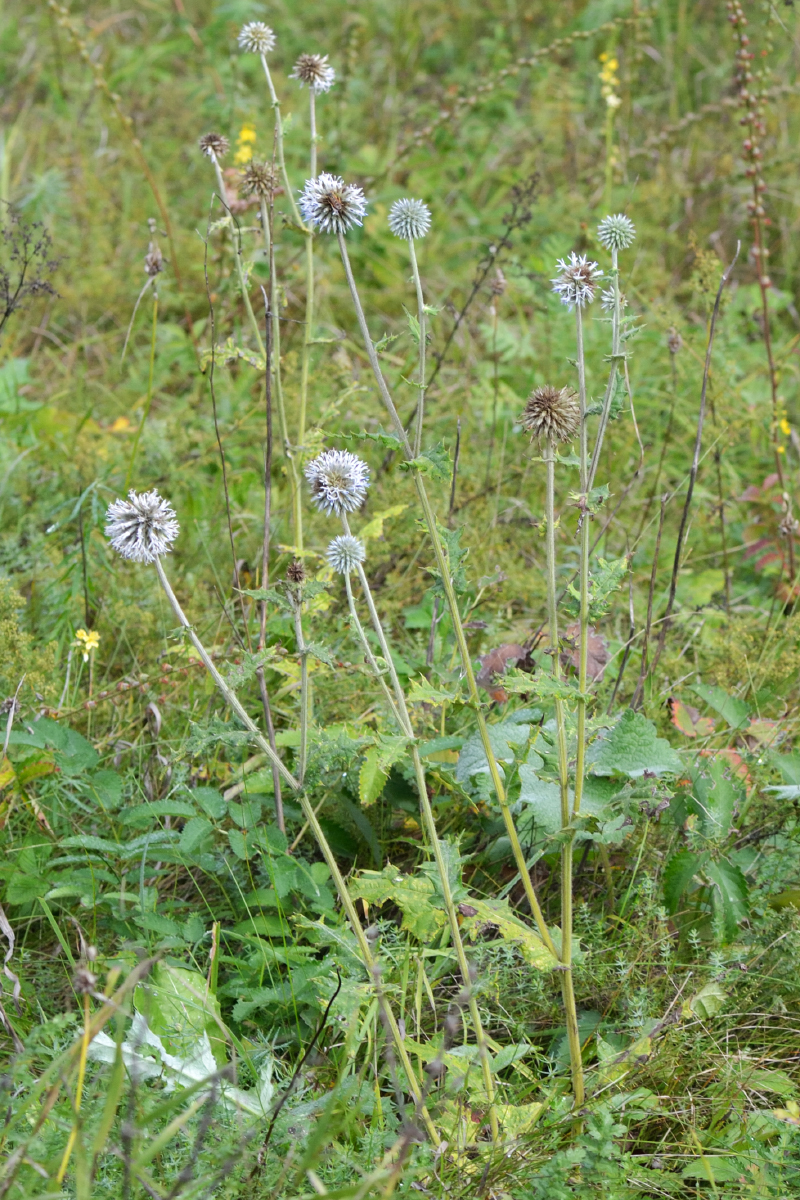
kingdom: Plantae
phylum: Tracheophyta
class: Magnoliopsida
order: Asterales
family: Asteraceae
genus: Echinops
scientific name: Echinops sphaerocephalus
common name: Glandular globe-thistle
